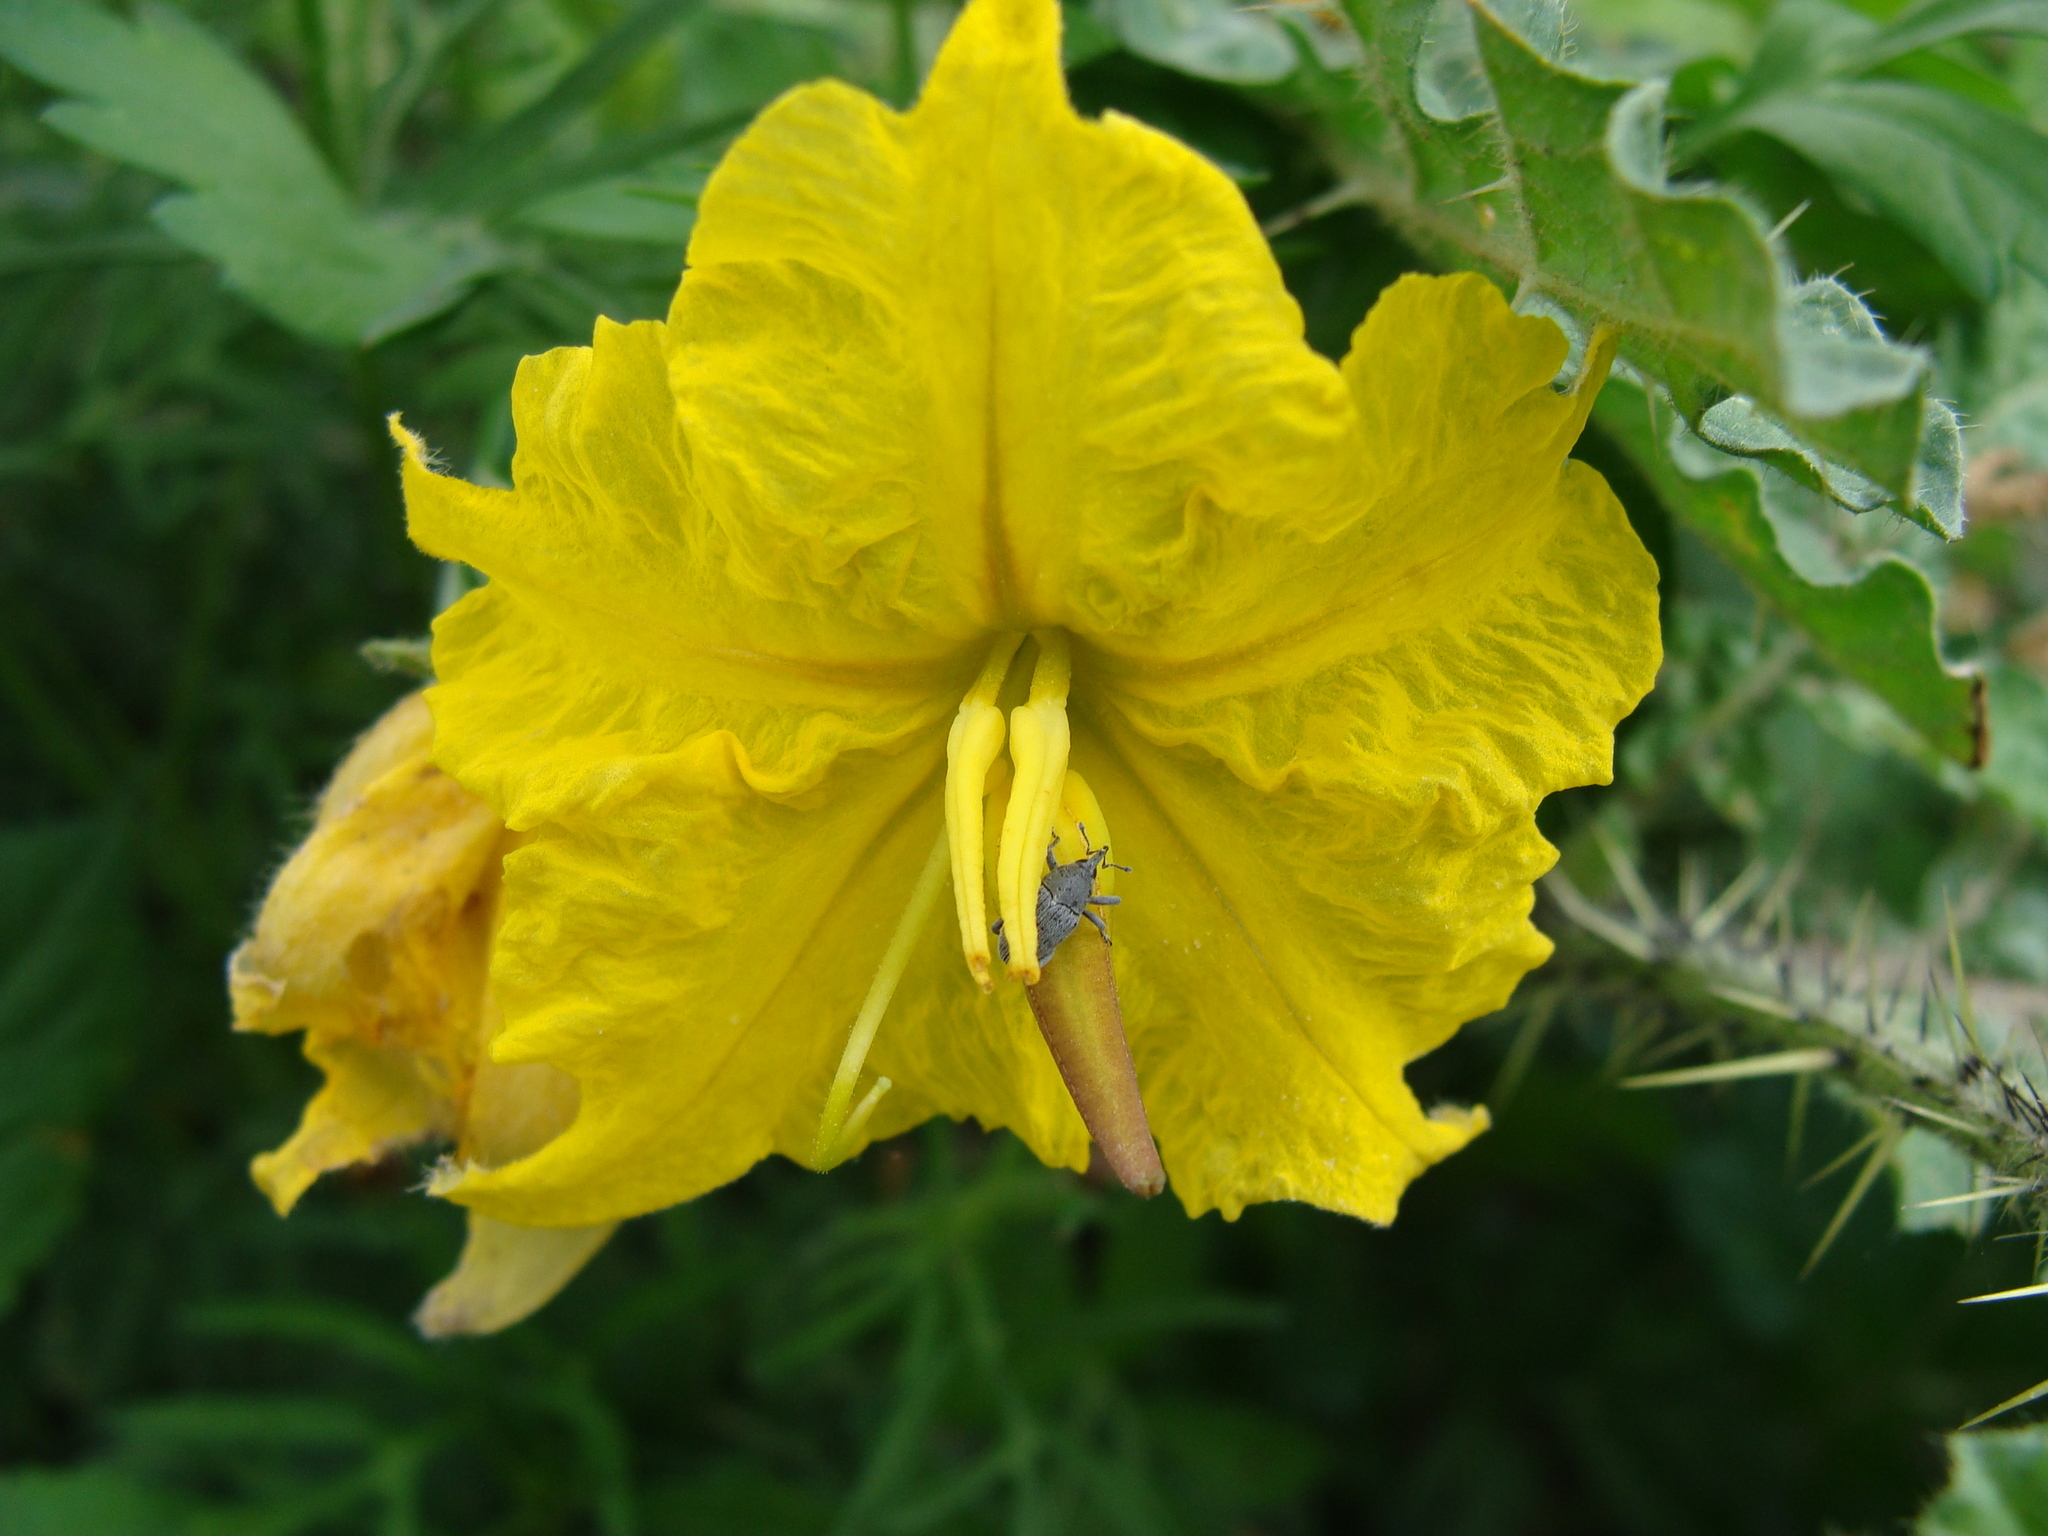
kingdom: Plantae
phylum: Tracheophyta
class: Magnoliopsida
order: Solanales
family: Solanaceae
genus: Solanum
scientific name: Solanum angustifolium
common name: Buffalobur nightshade
